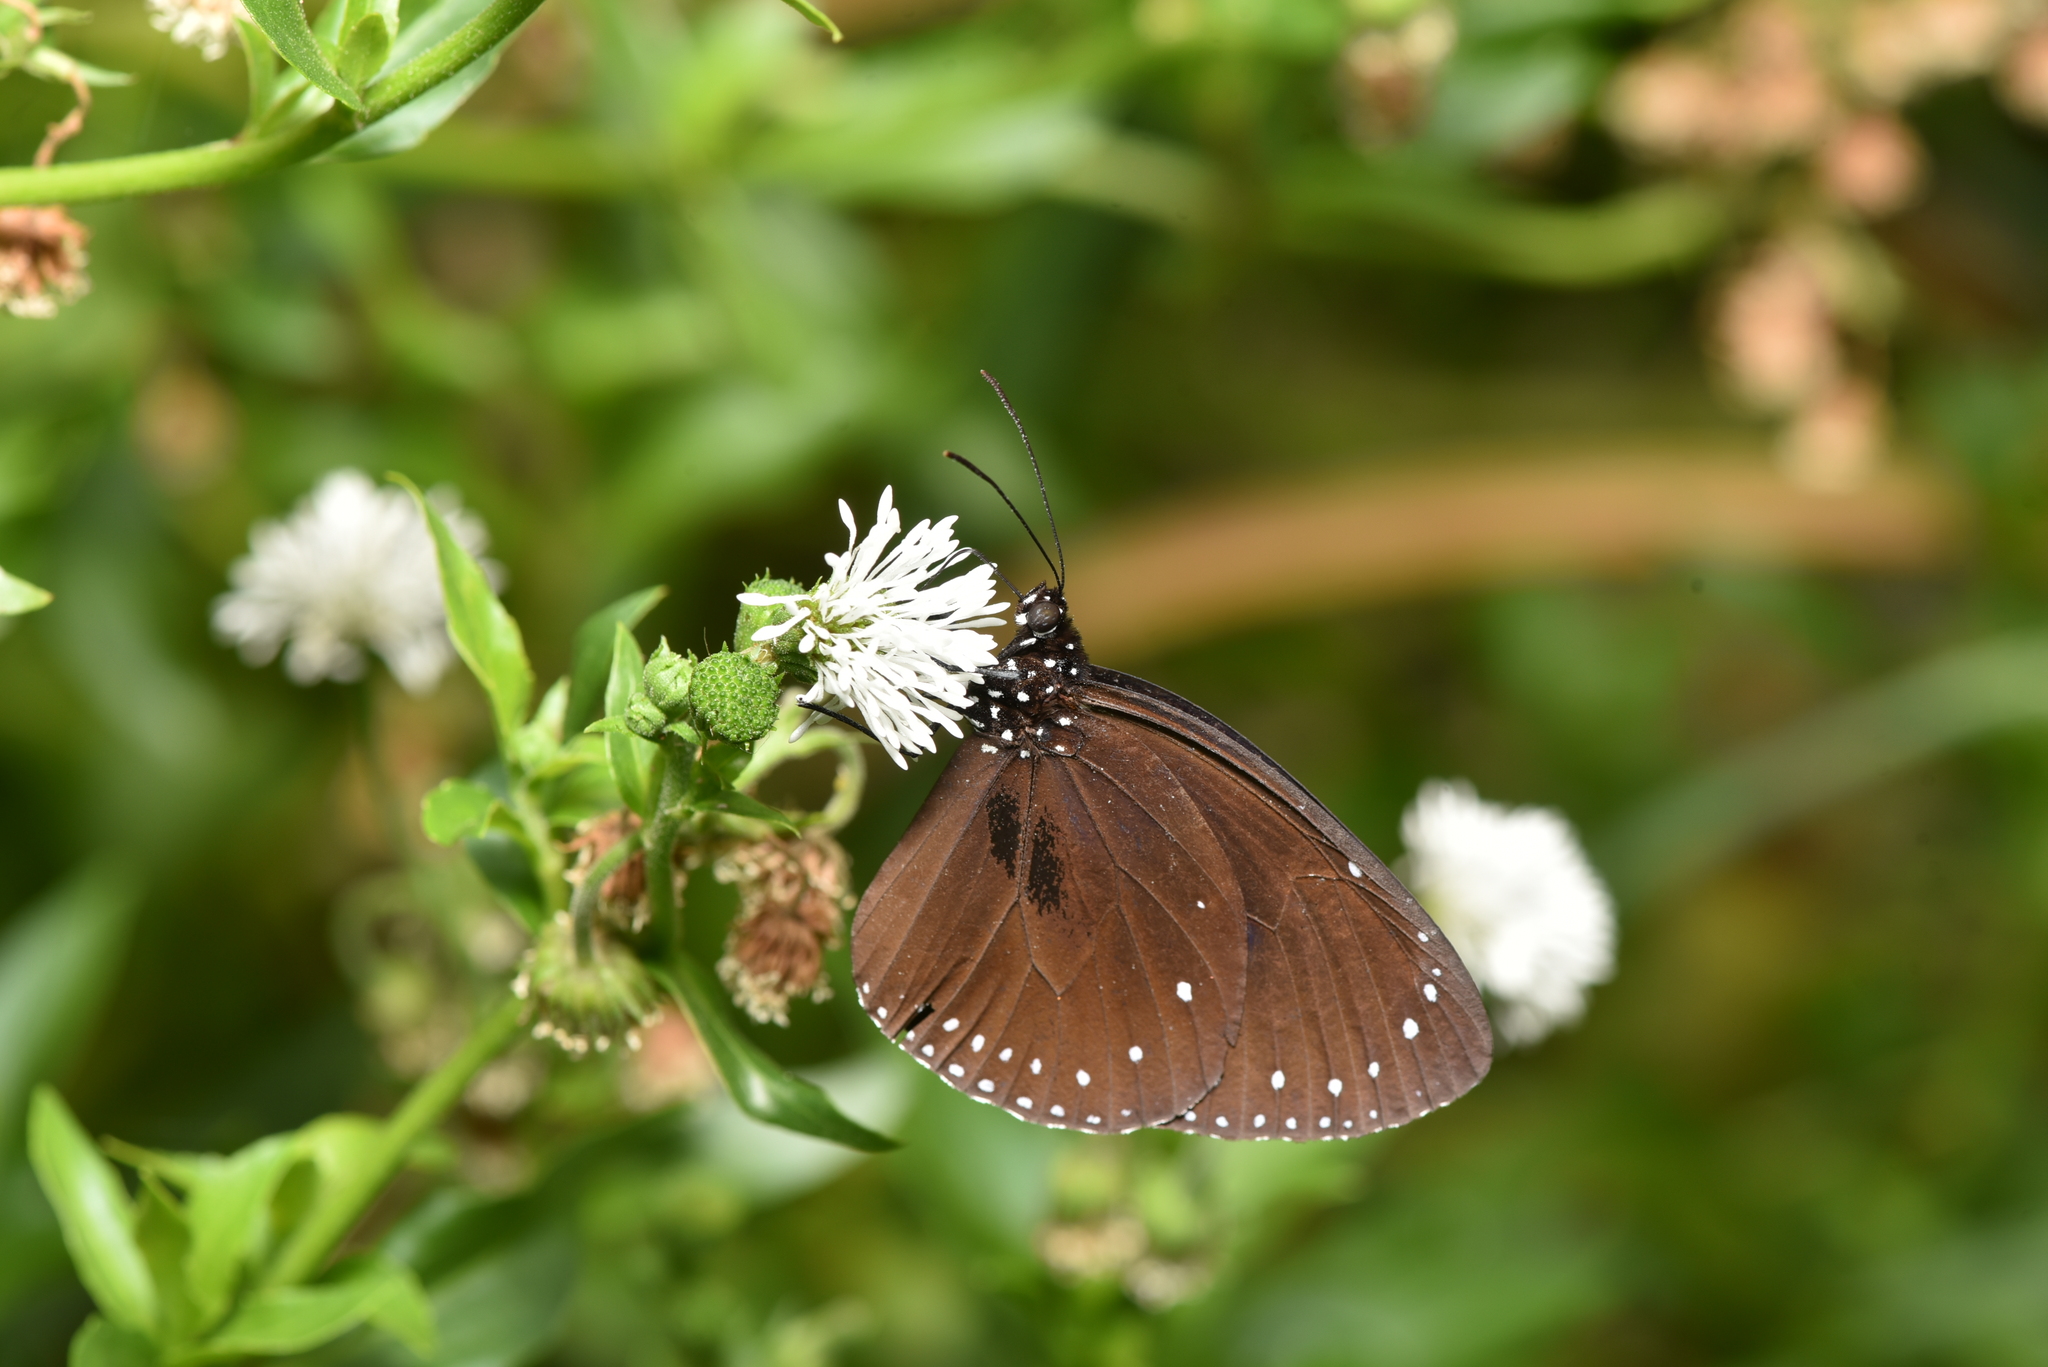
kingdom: Animalia
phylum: Arthropoda
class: Insecta
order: Lepidoptera
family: Nymphalidae
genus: Euploea
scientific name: Euploea tulliolus
